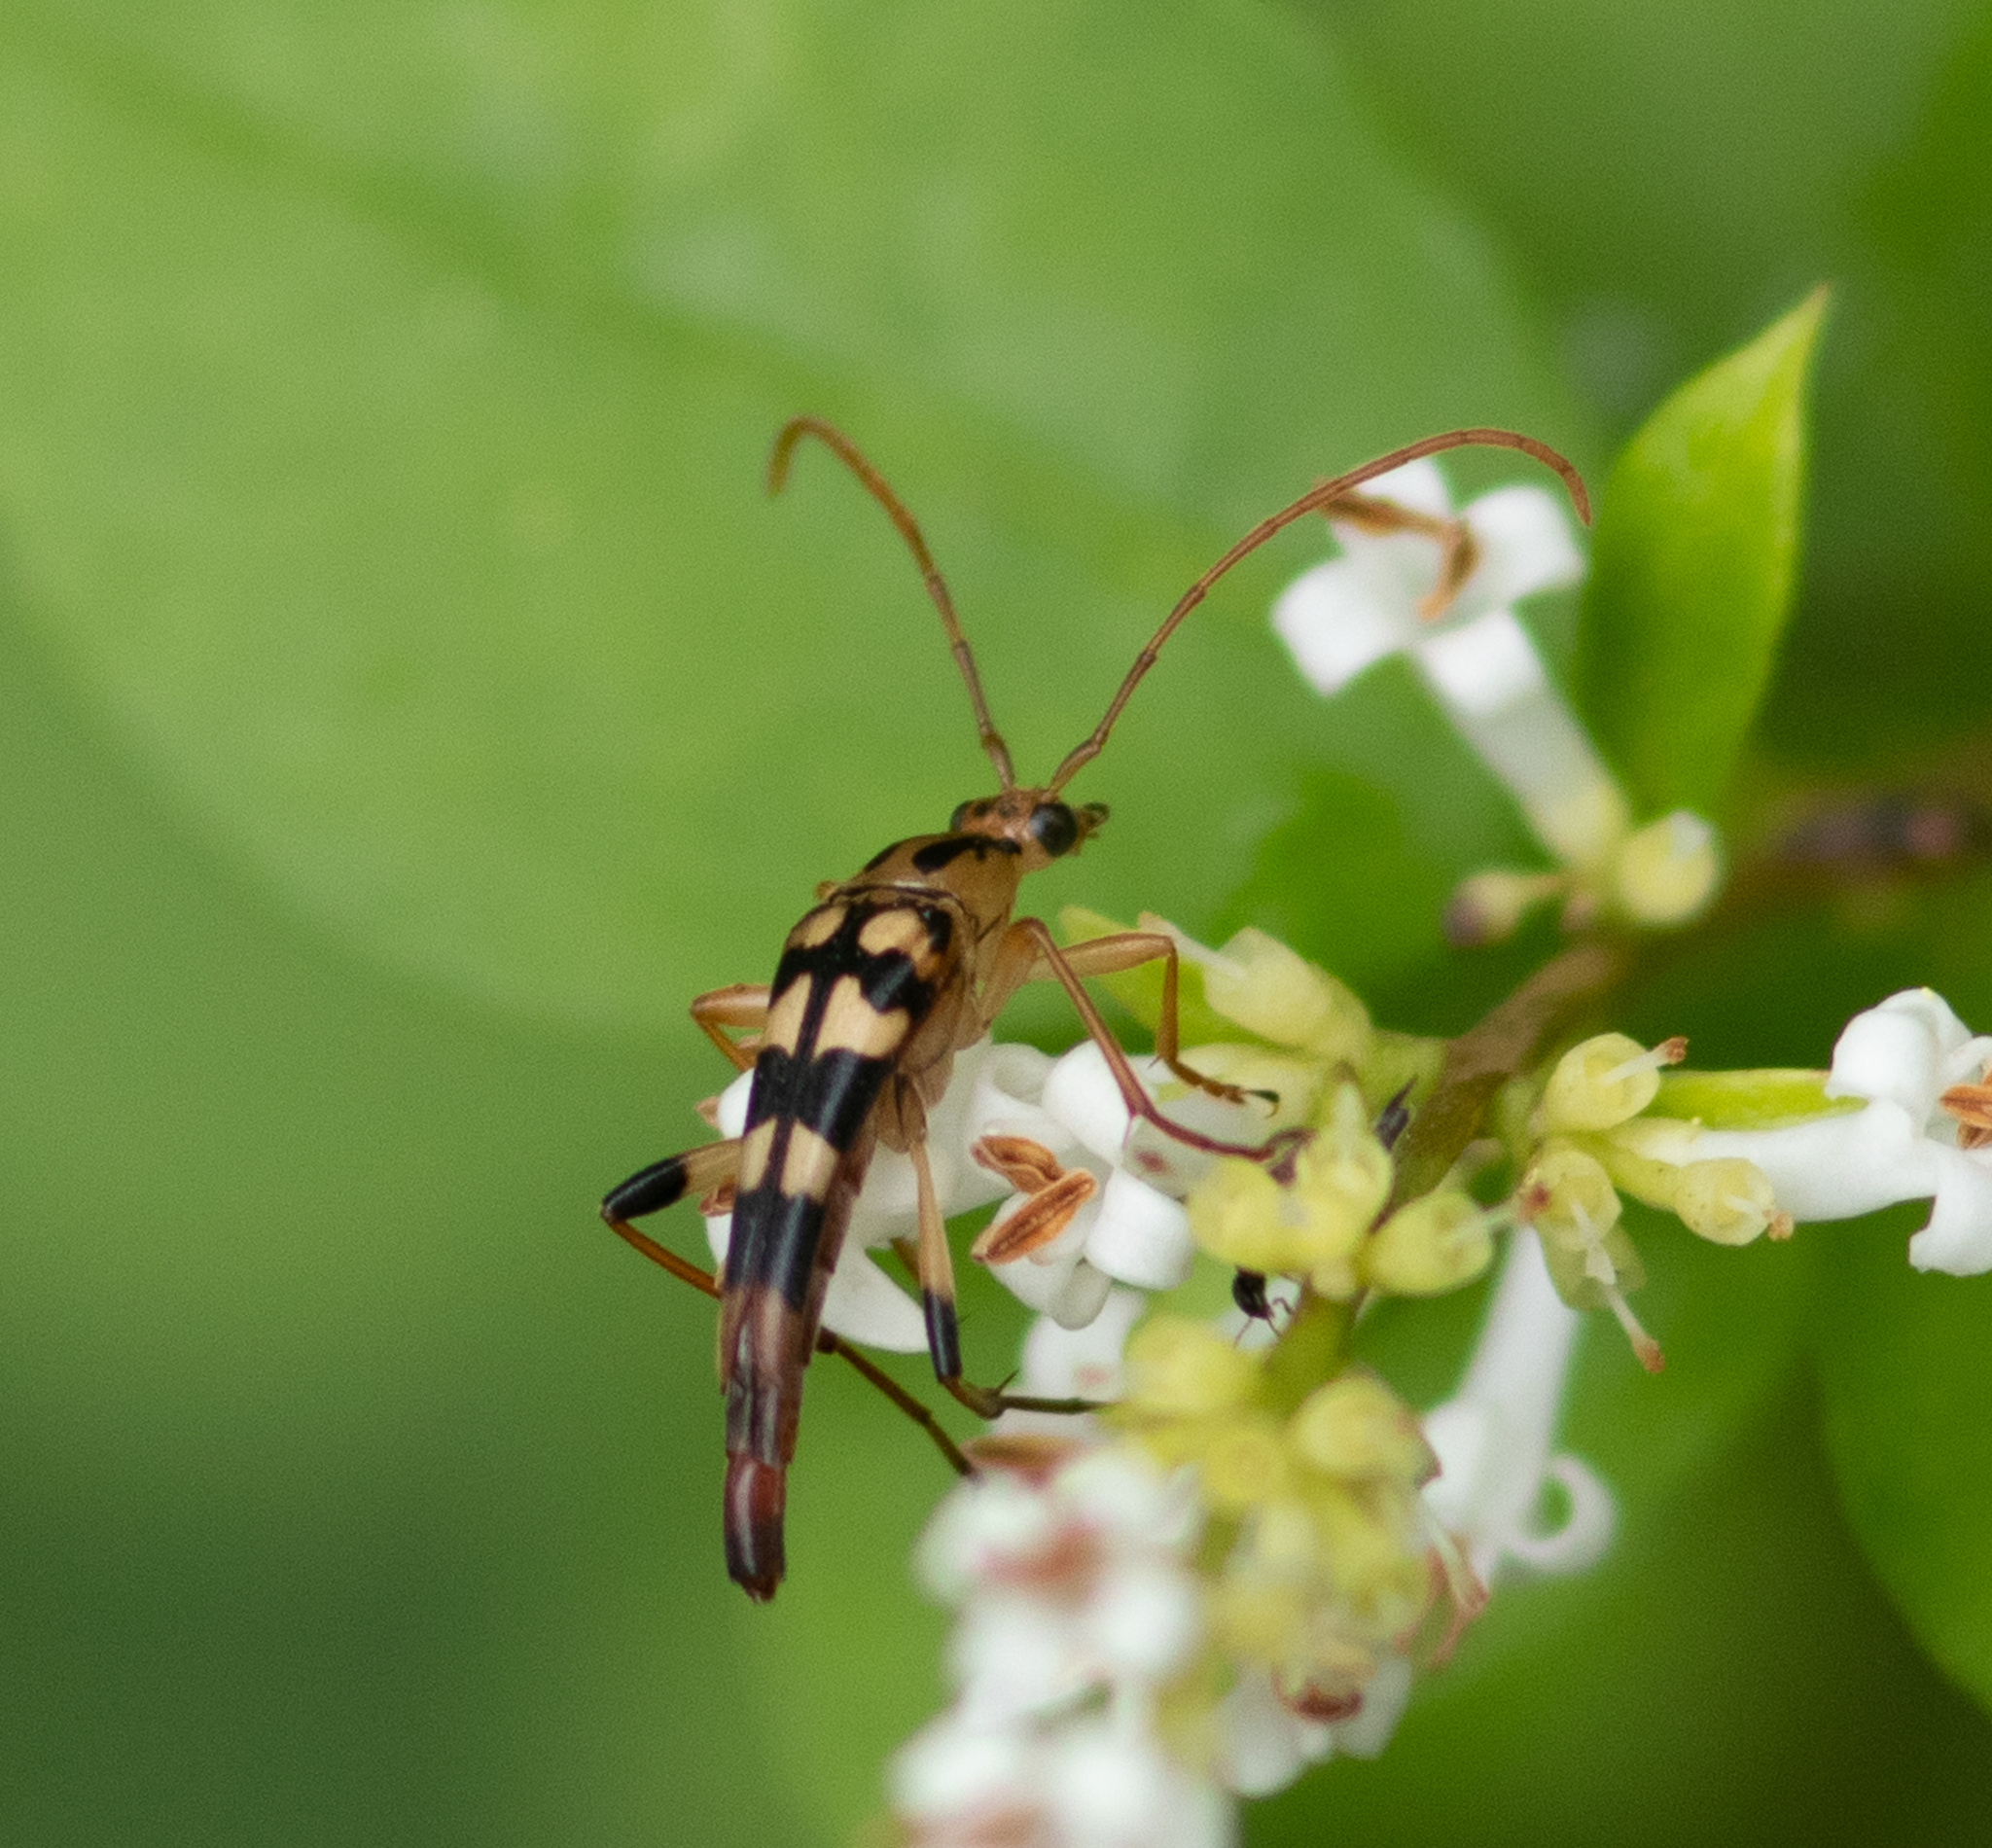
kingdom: Animalia
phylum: Arthropoda
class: Insecta
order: Coleoptera
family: Cerambycidae
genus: Strangalia
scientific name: Strangalia luteicornis
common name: Yellow-horned flower longhorn beetle
